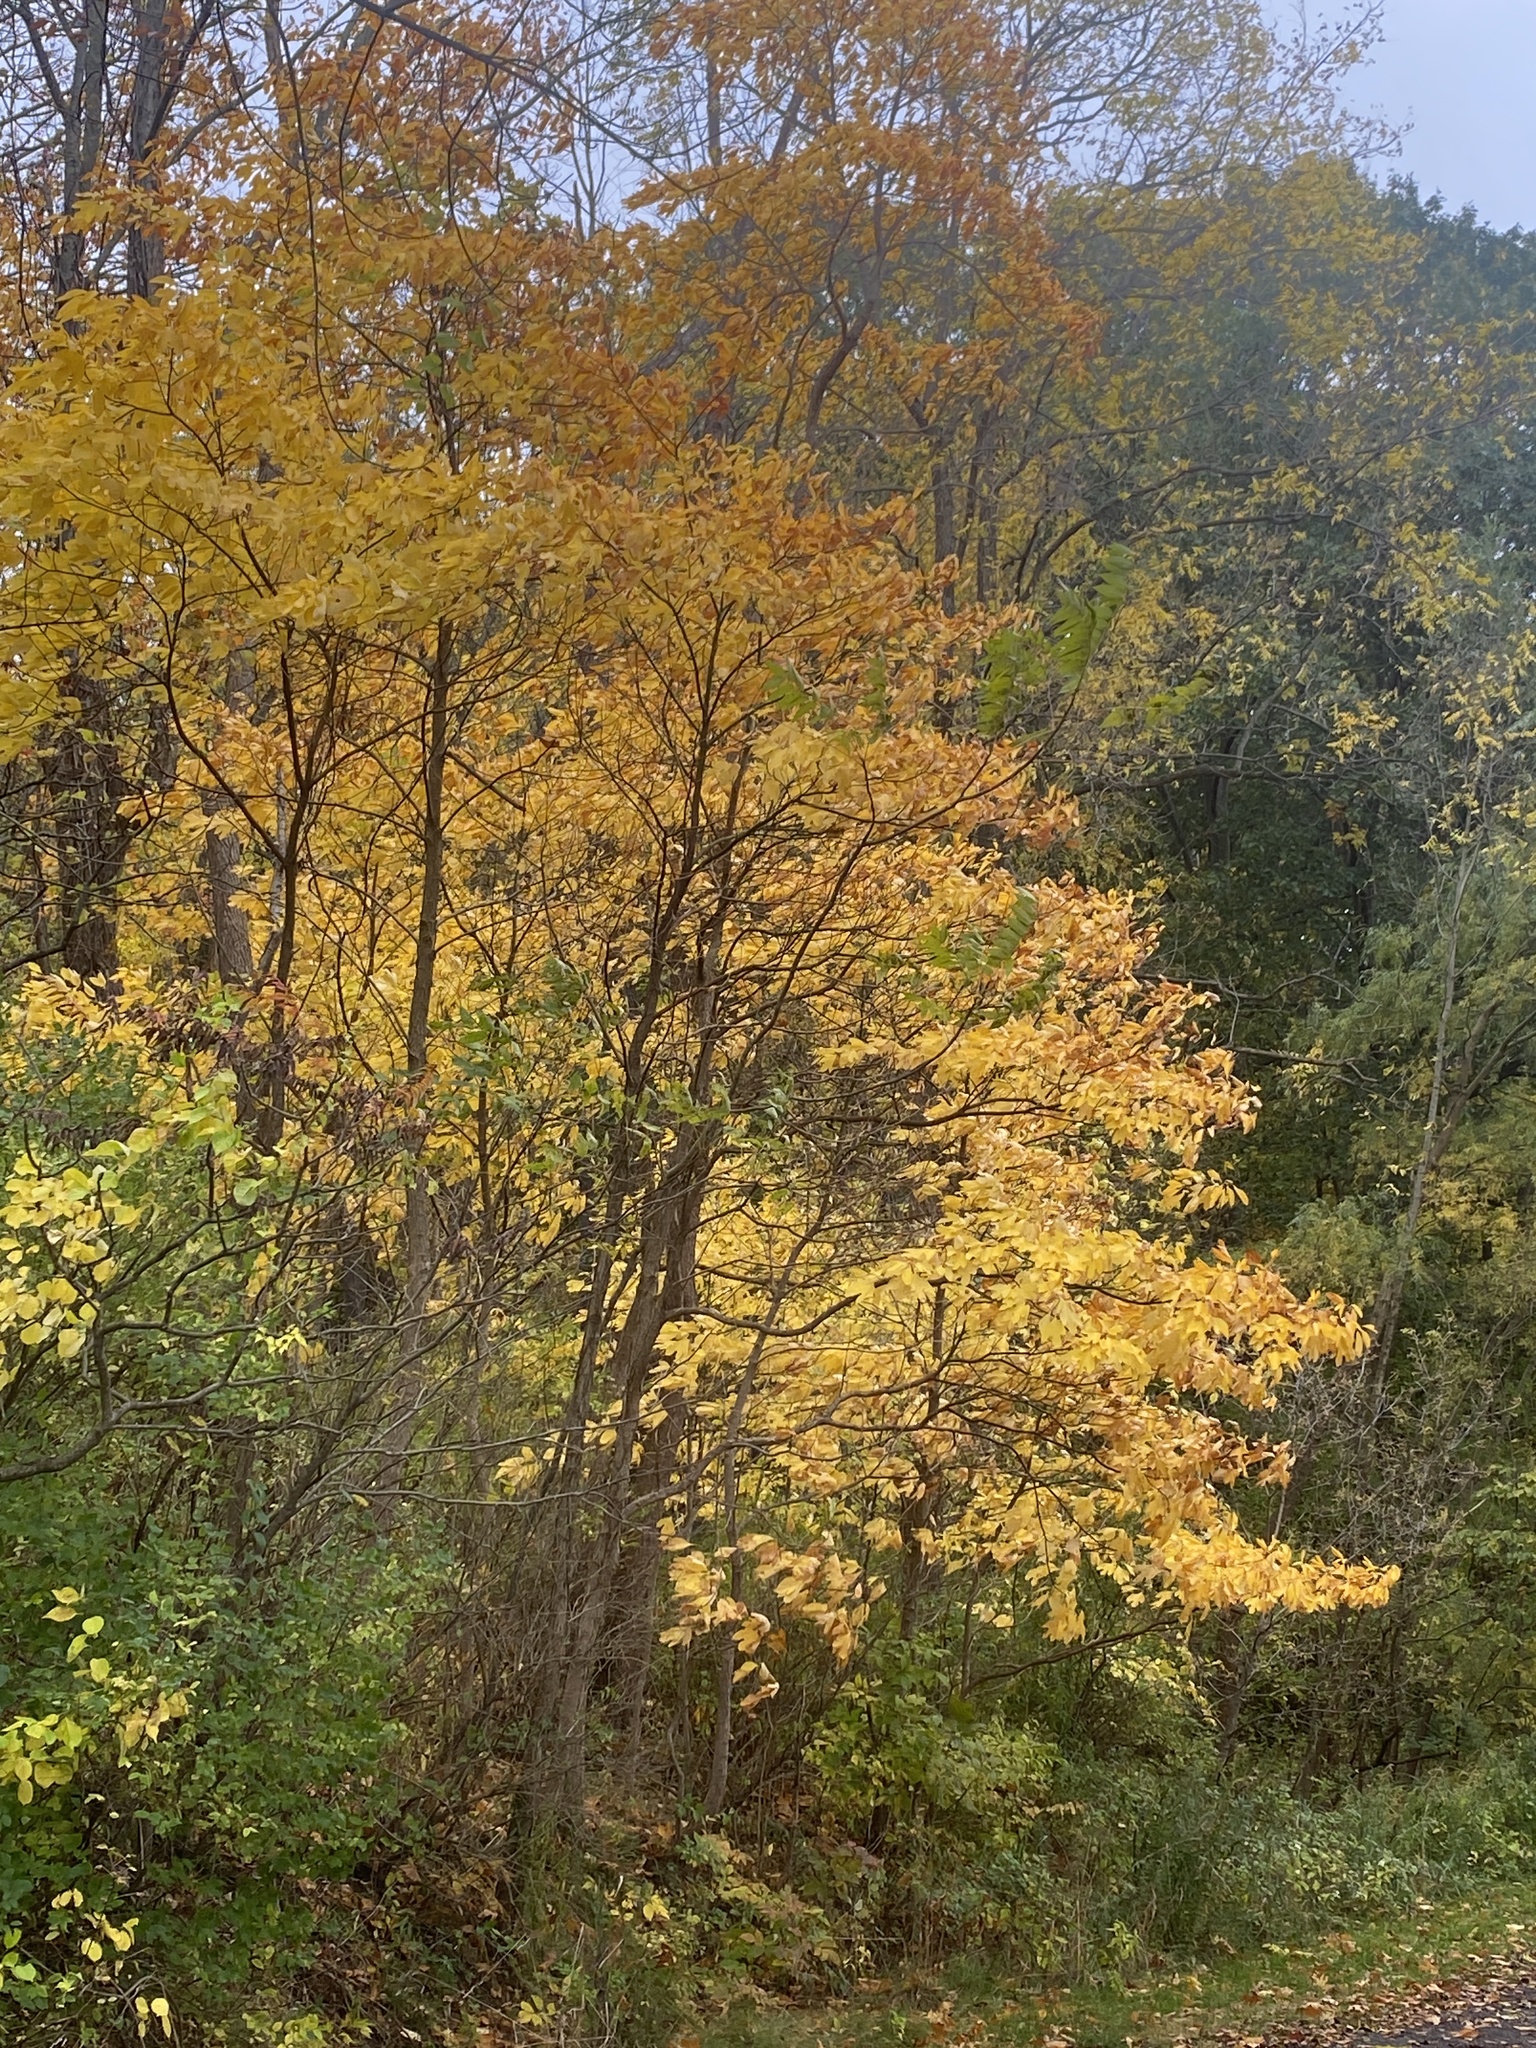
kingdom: Plantae
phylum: Tracheophyta
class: Magnoliopsida
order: Laurales
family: Lauraceae
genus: Sassafras
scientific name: Sassafras albidum
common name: Sassafras
